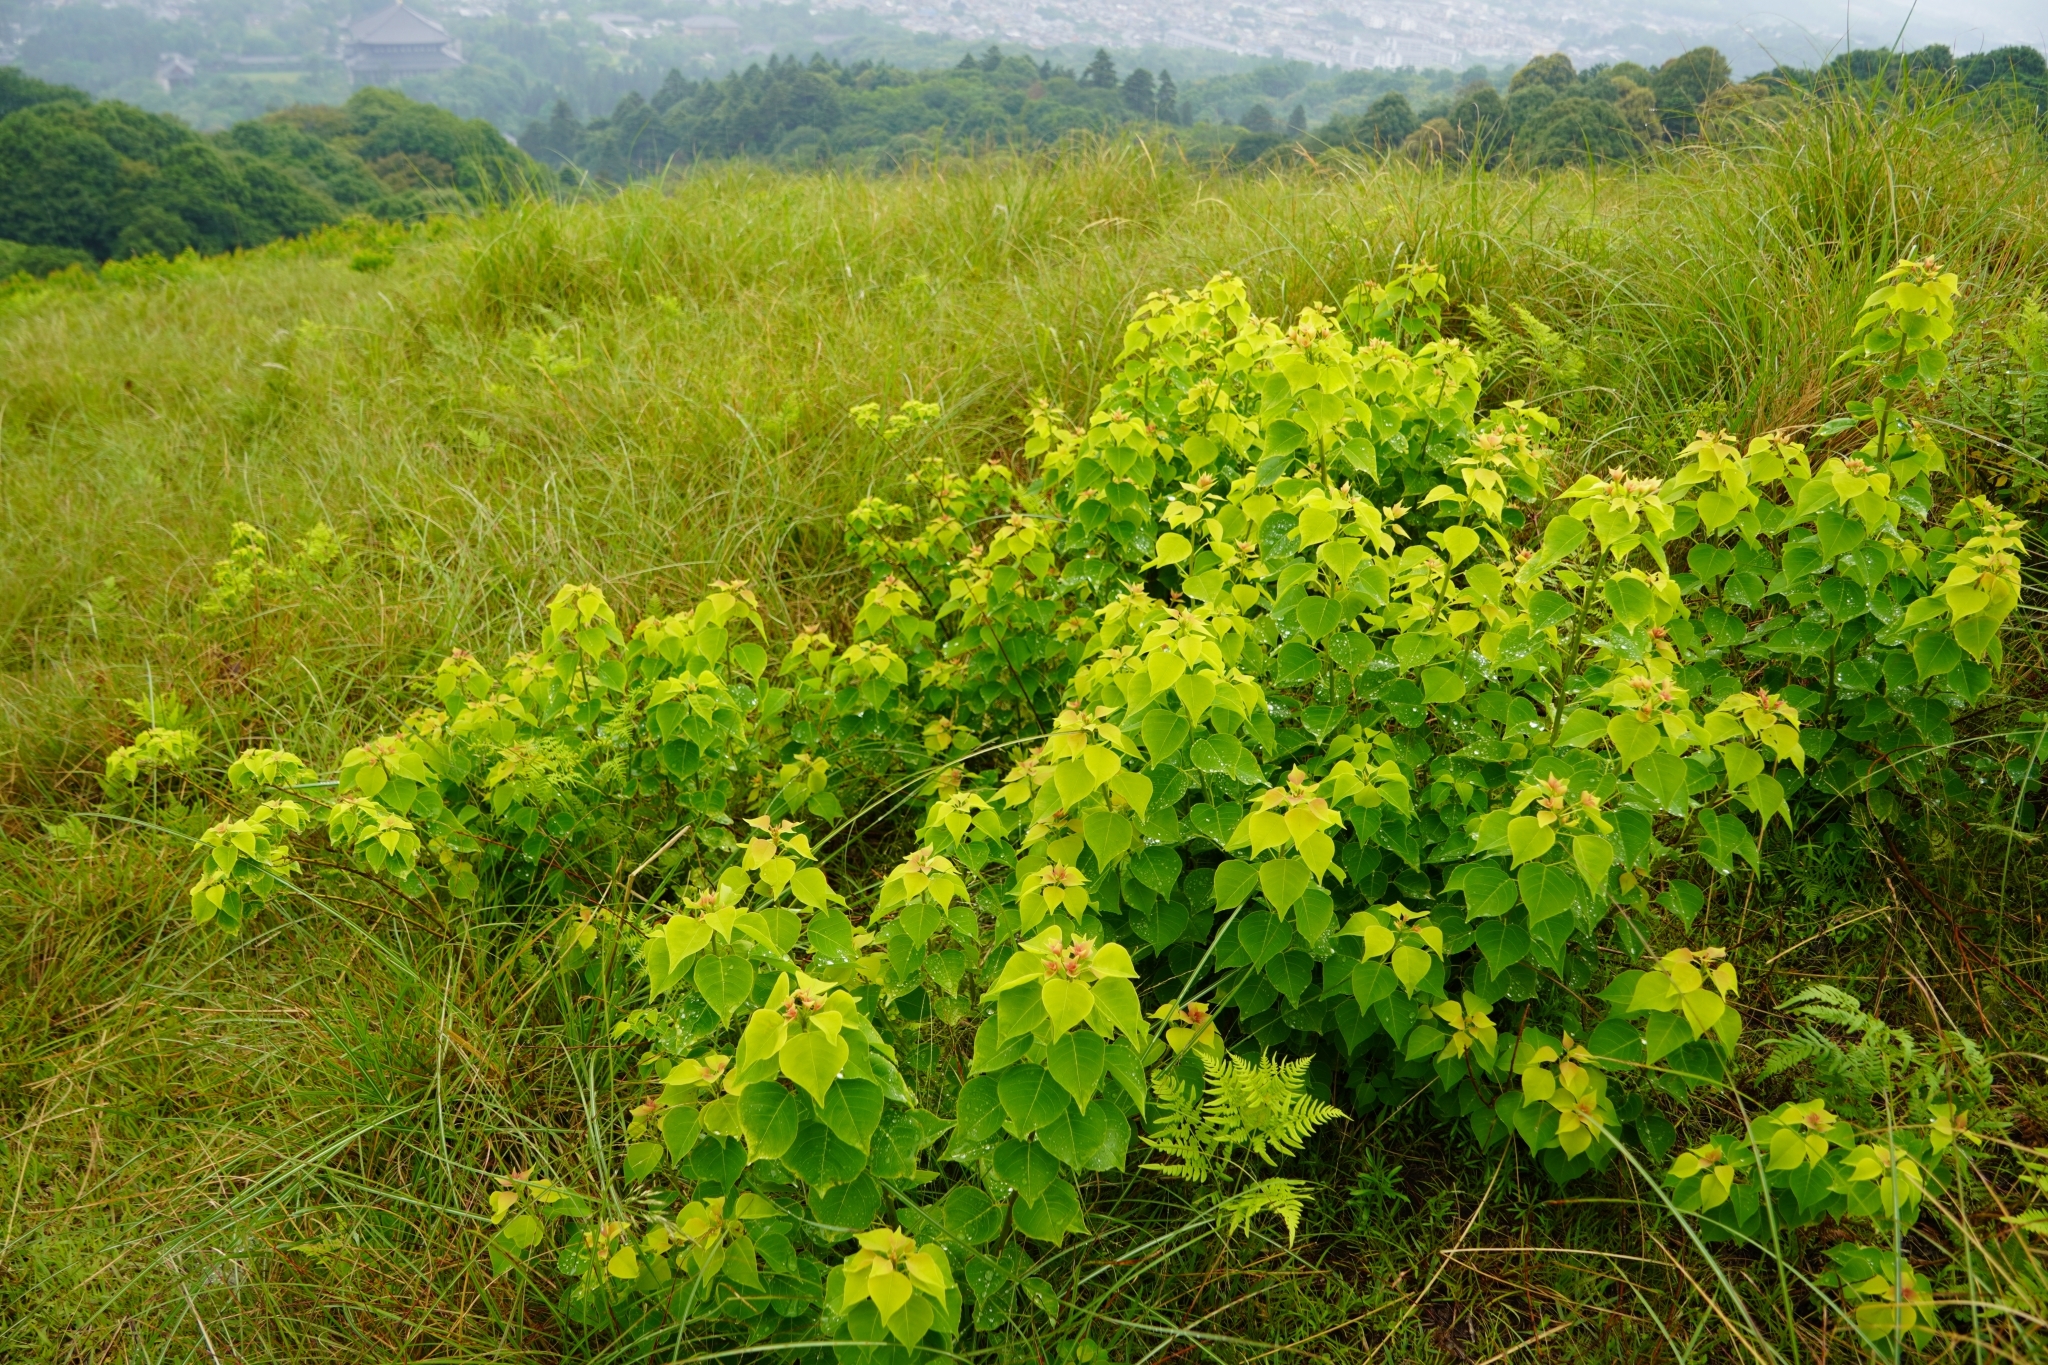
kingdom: Plantae
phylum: Tracheophyta
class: Magnoliopsida
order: Malpighiales
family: Euphorbiaceae
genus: Triadica
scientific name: Triadica sebifera
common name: Chinese tallow
